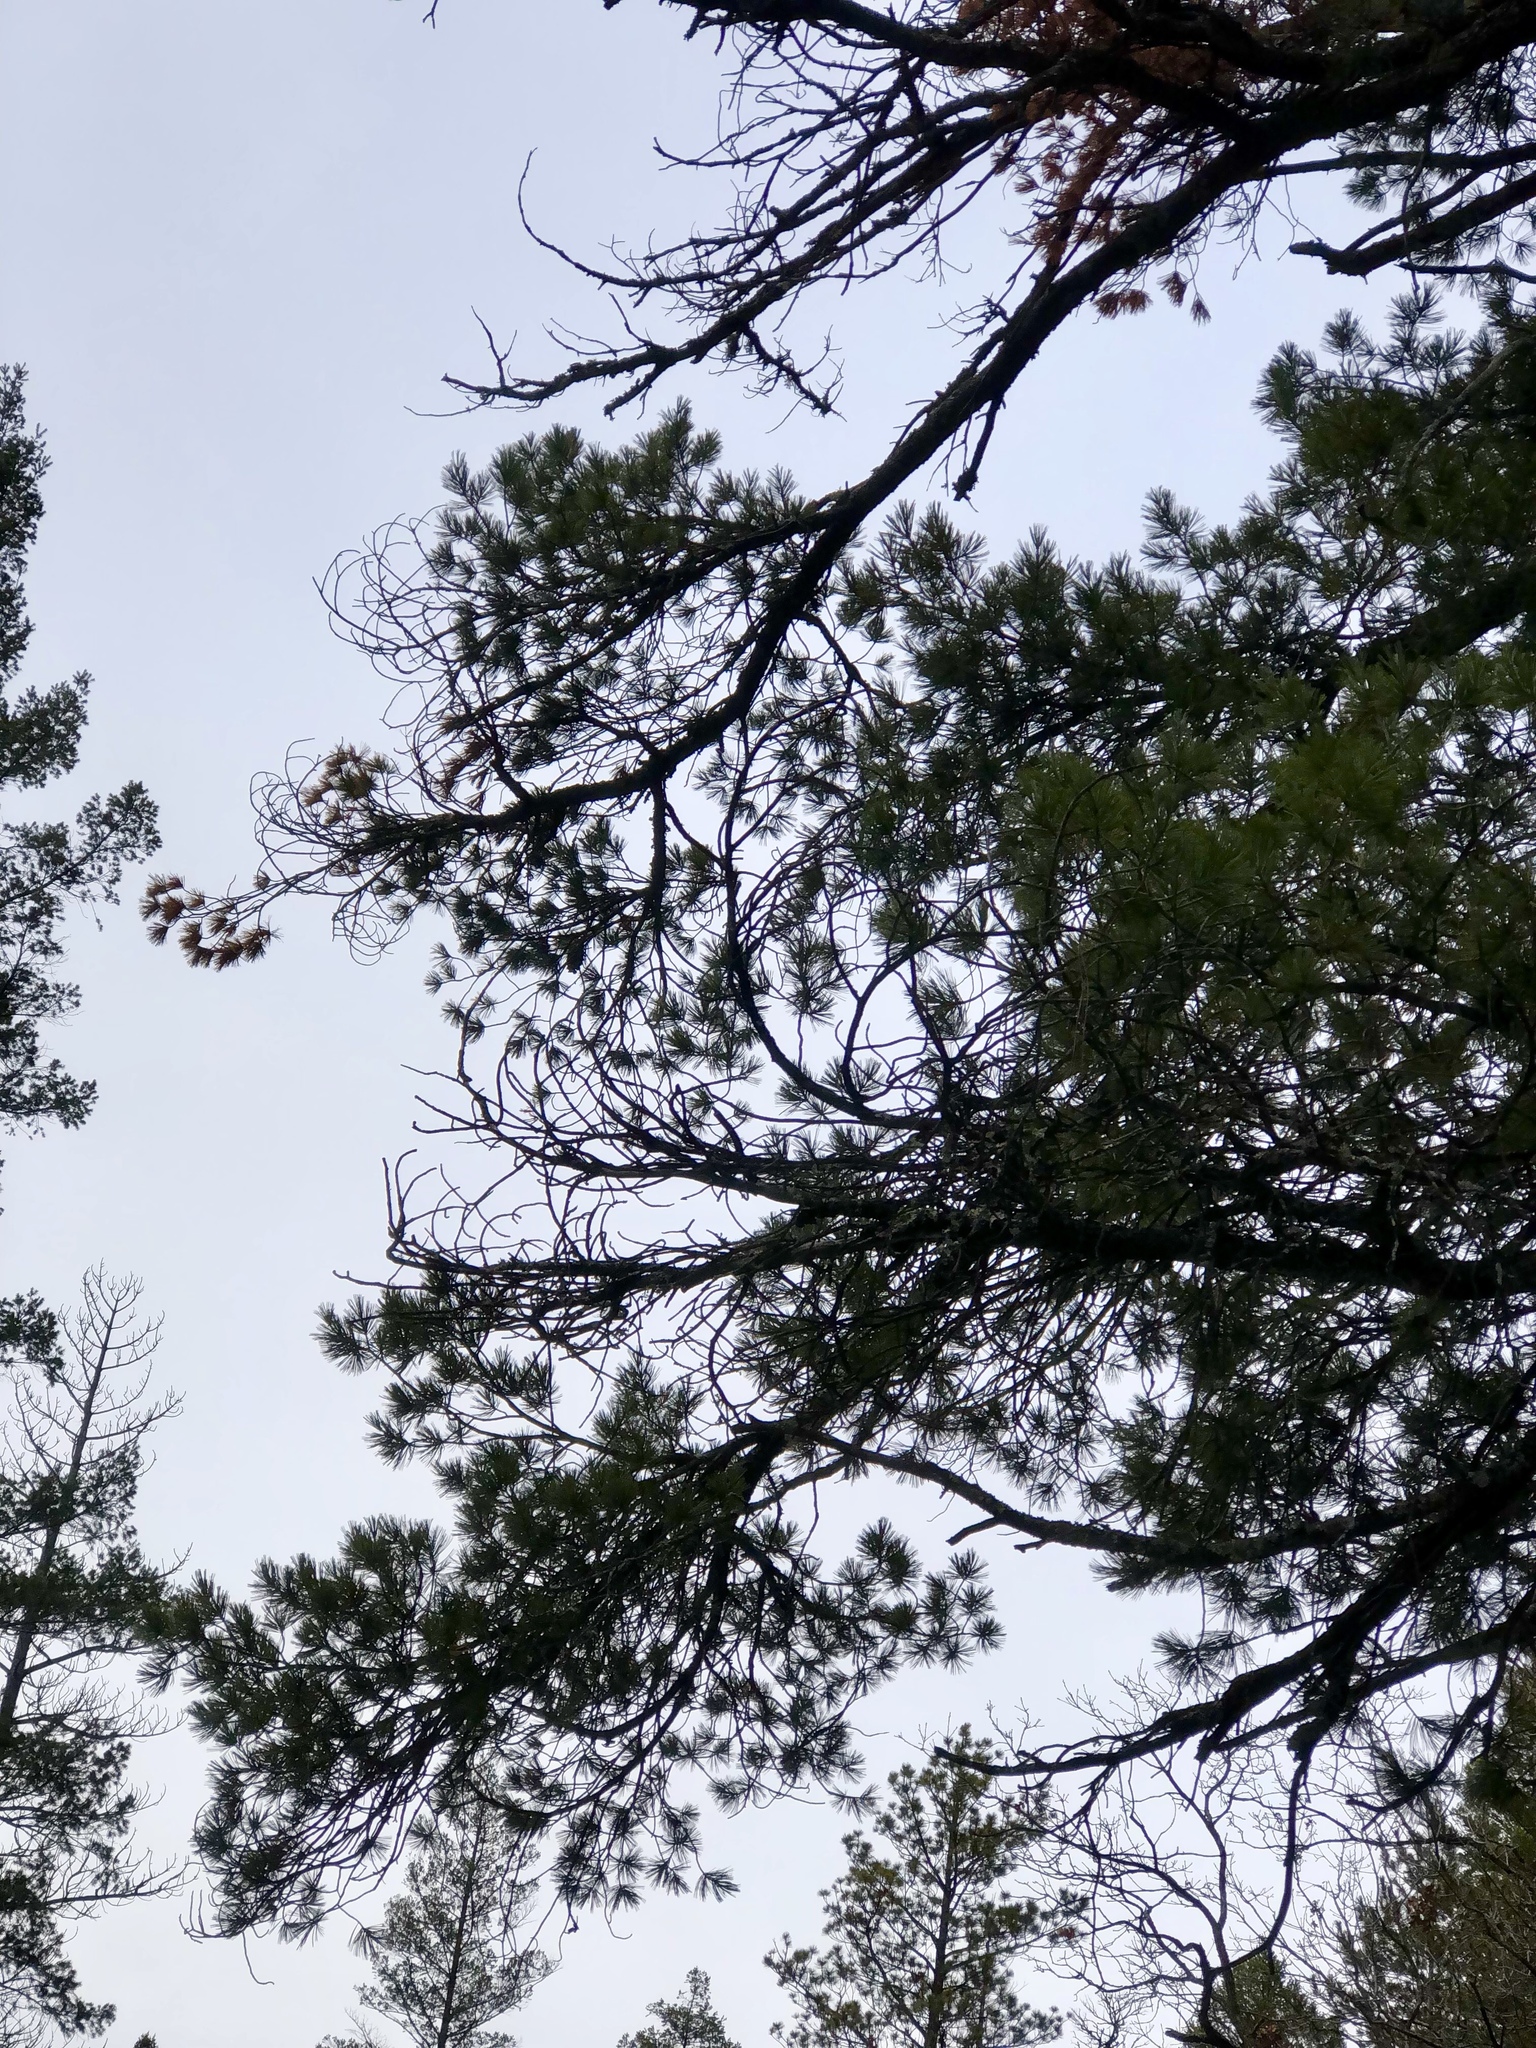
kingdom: Plantae
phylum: Tracheophyta
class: Pinopsida
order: Pinales
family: Pinaceae
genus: Pinus
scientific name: Pinus strobiformis
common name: Southwestern white pine
